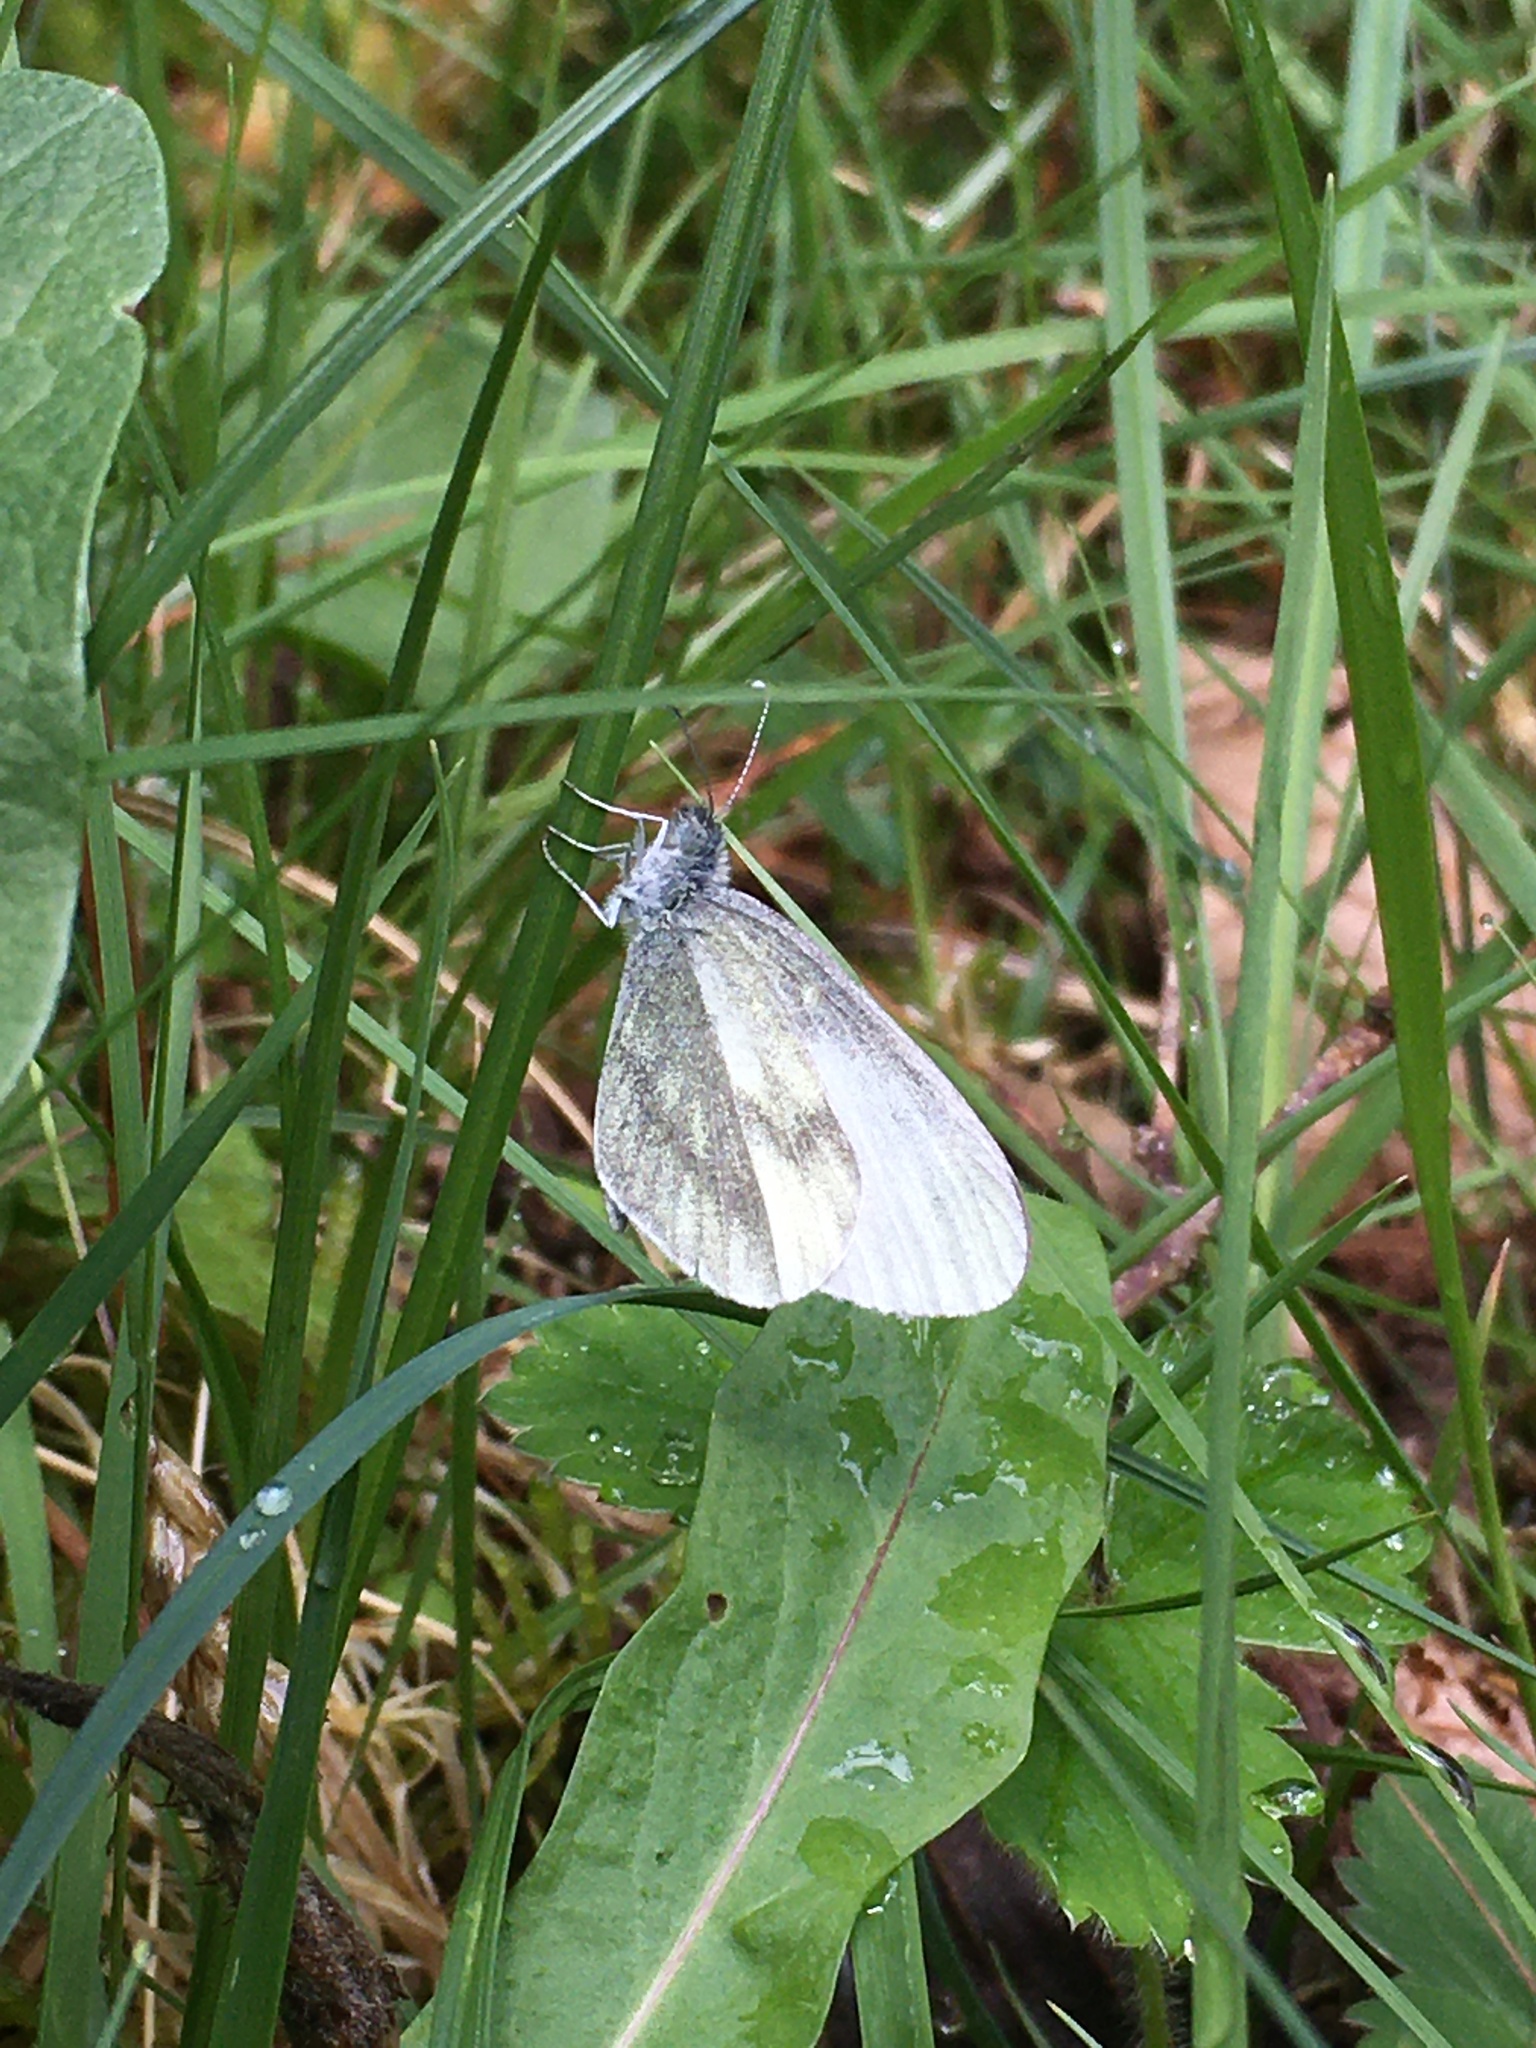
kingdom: Animalia
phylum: Arthropoda
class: Insecta
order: Lepidoptera
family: Pieridae
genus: Leptidea
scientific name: Leptidea sinapis
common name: Wood white
